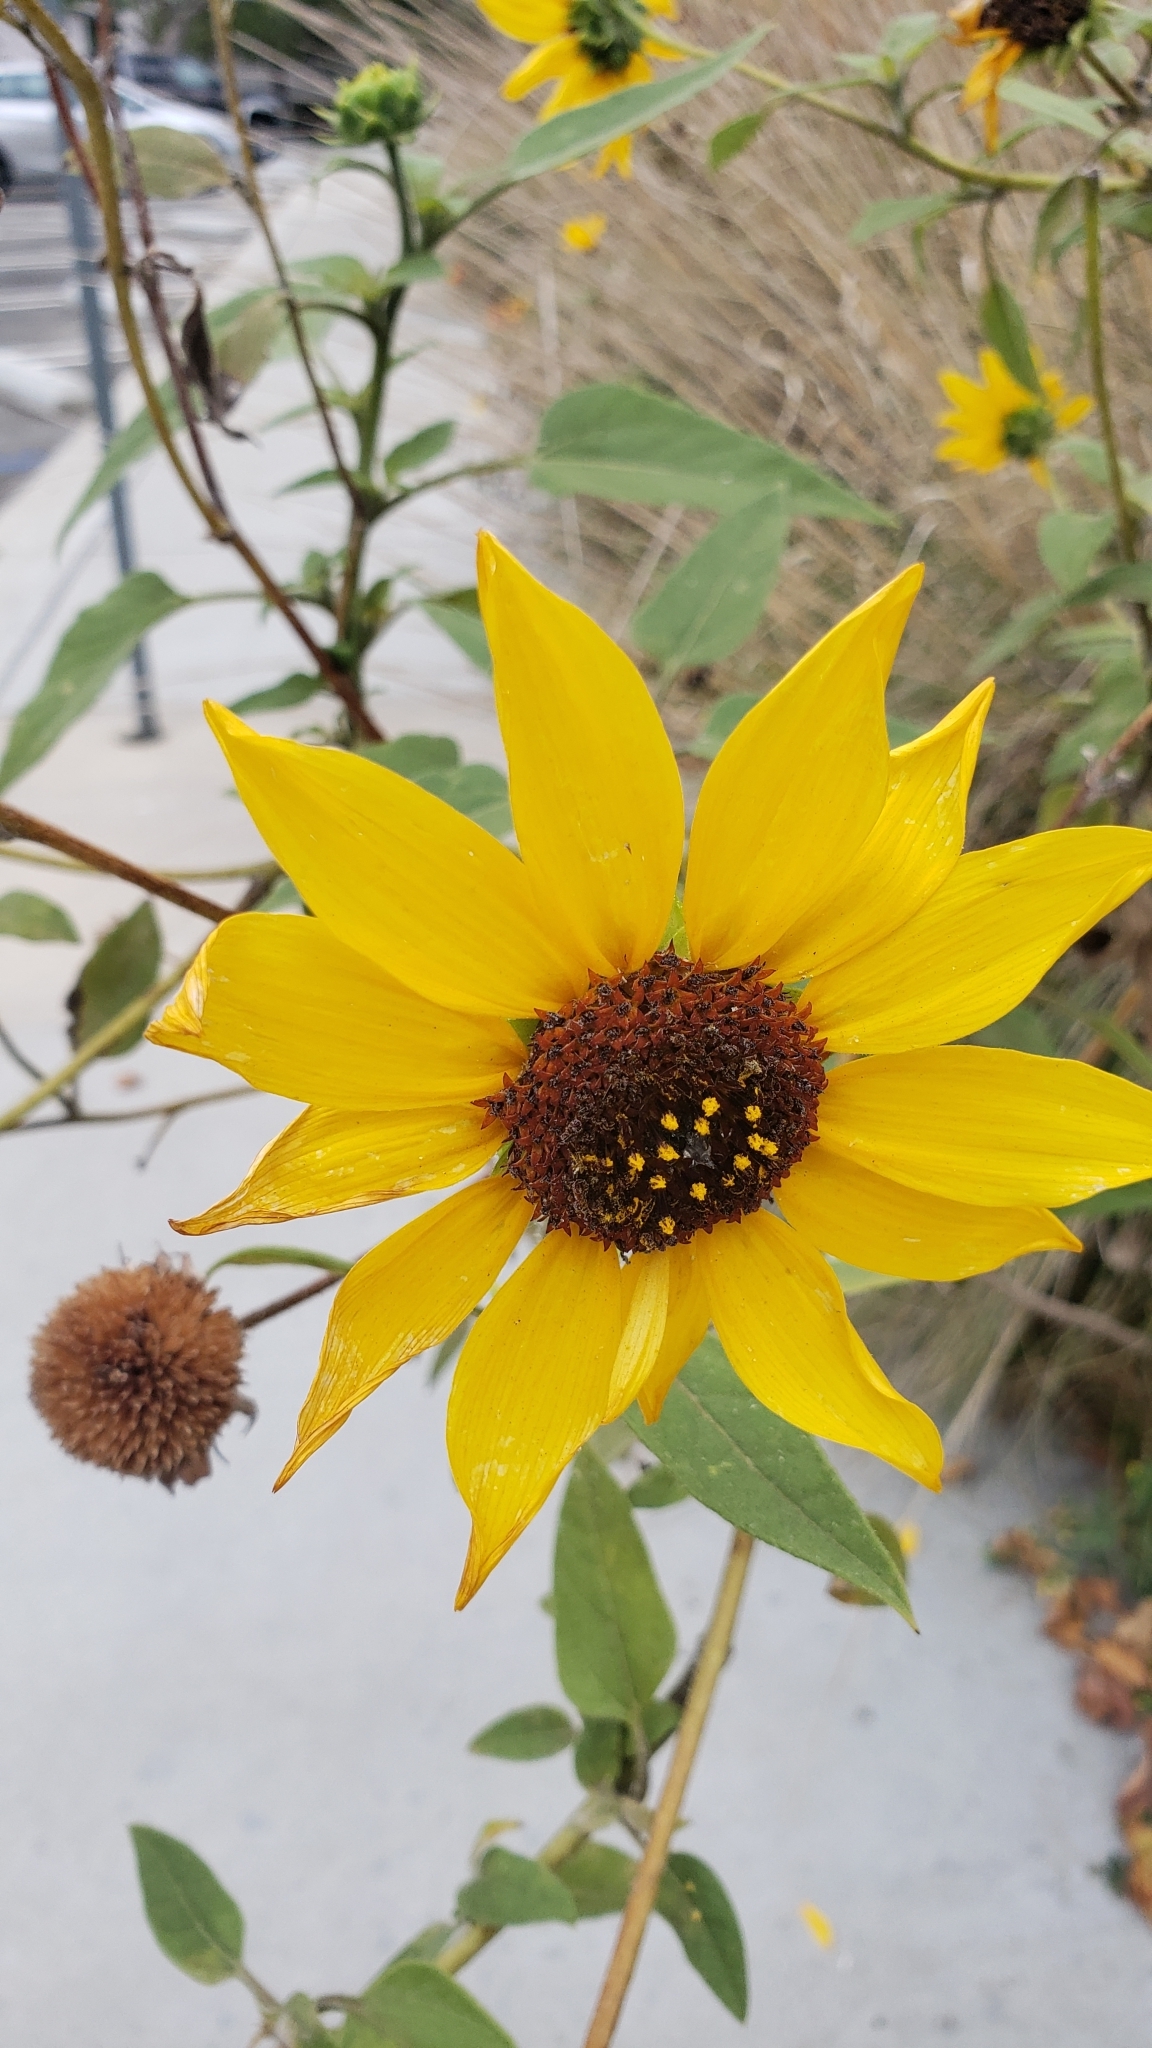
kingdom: Plantae
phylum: Tracheophyta
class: Magnoliopsida
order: Asterales
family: Asteraceae
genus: Helianthus
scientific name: Helianthus petiolaris
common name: Lesser sunflower
